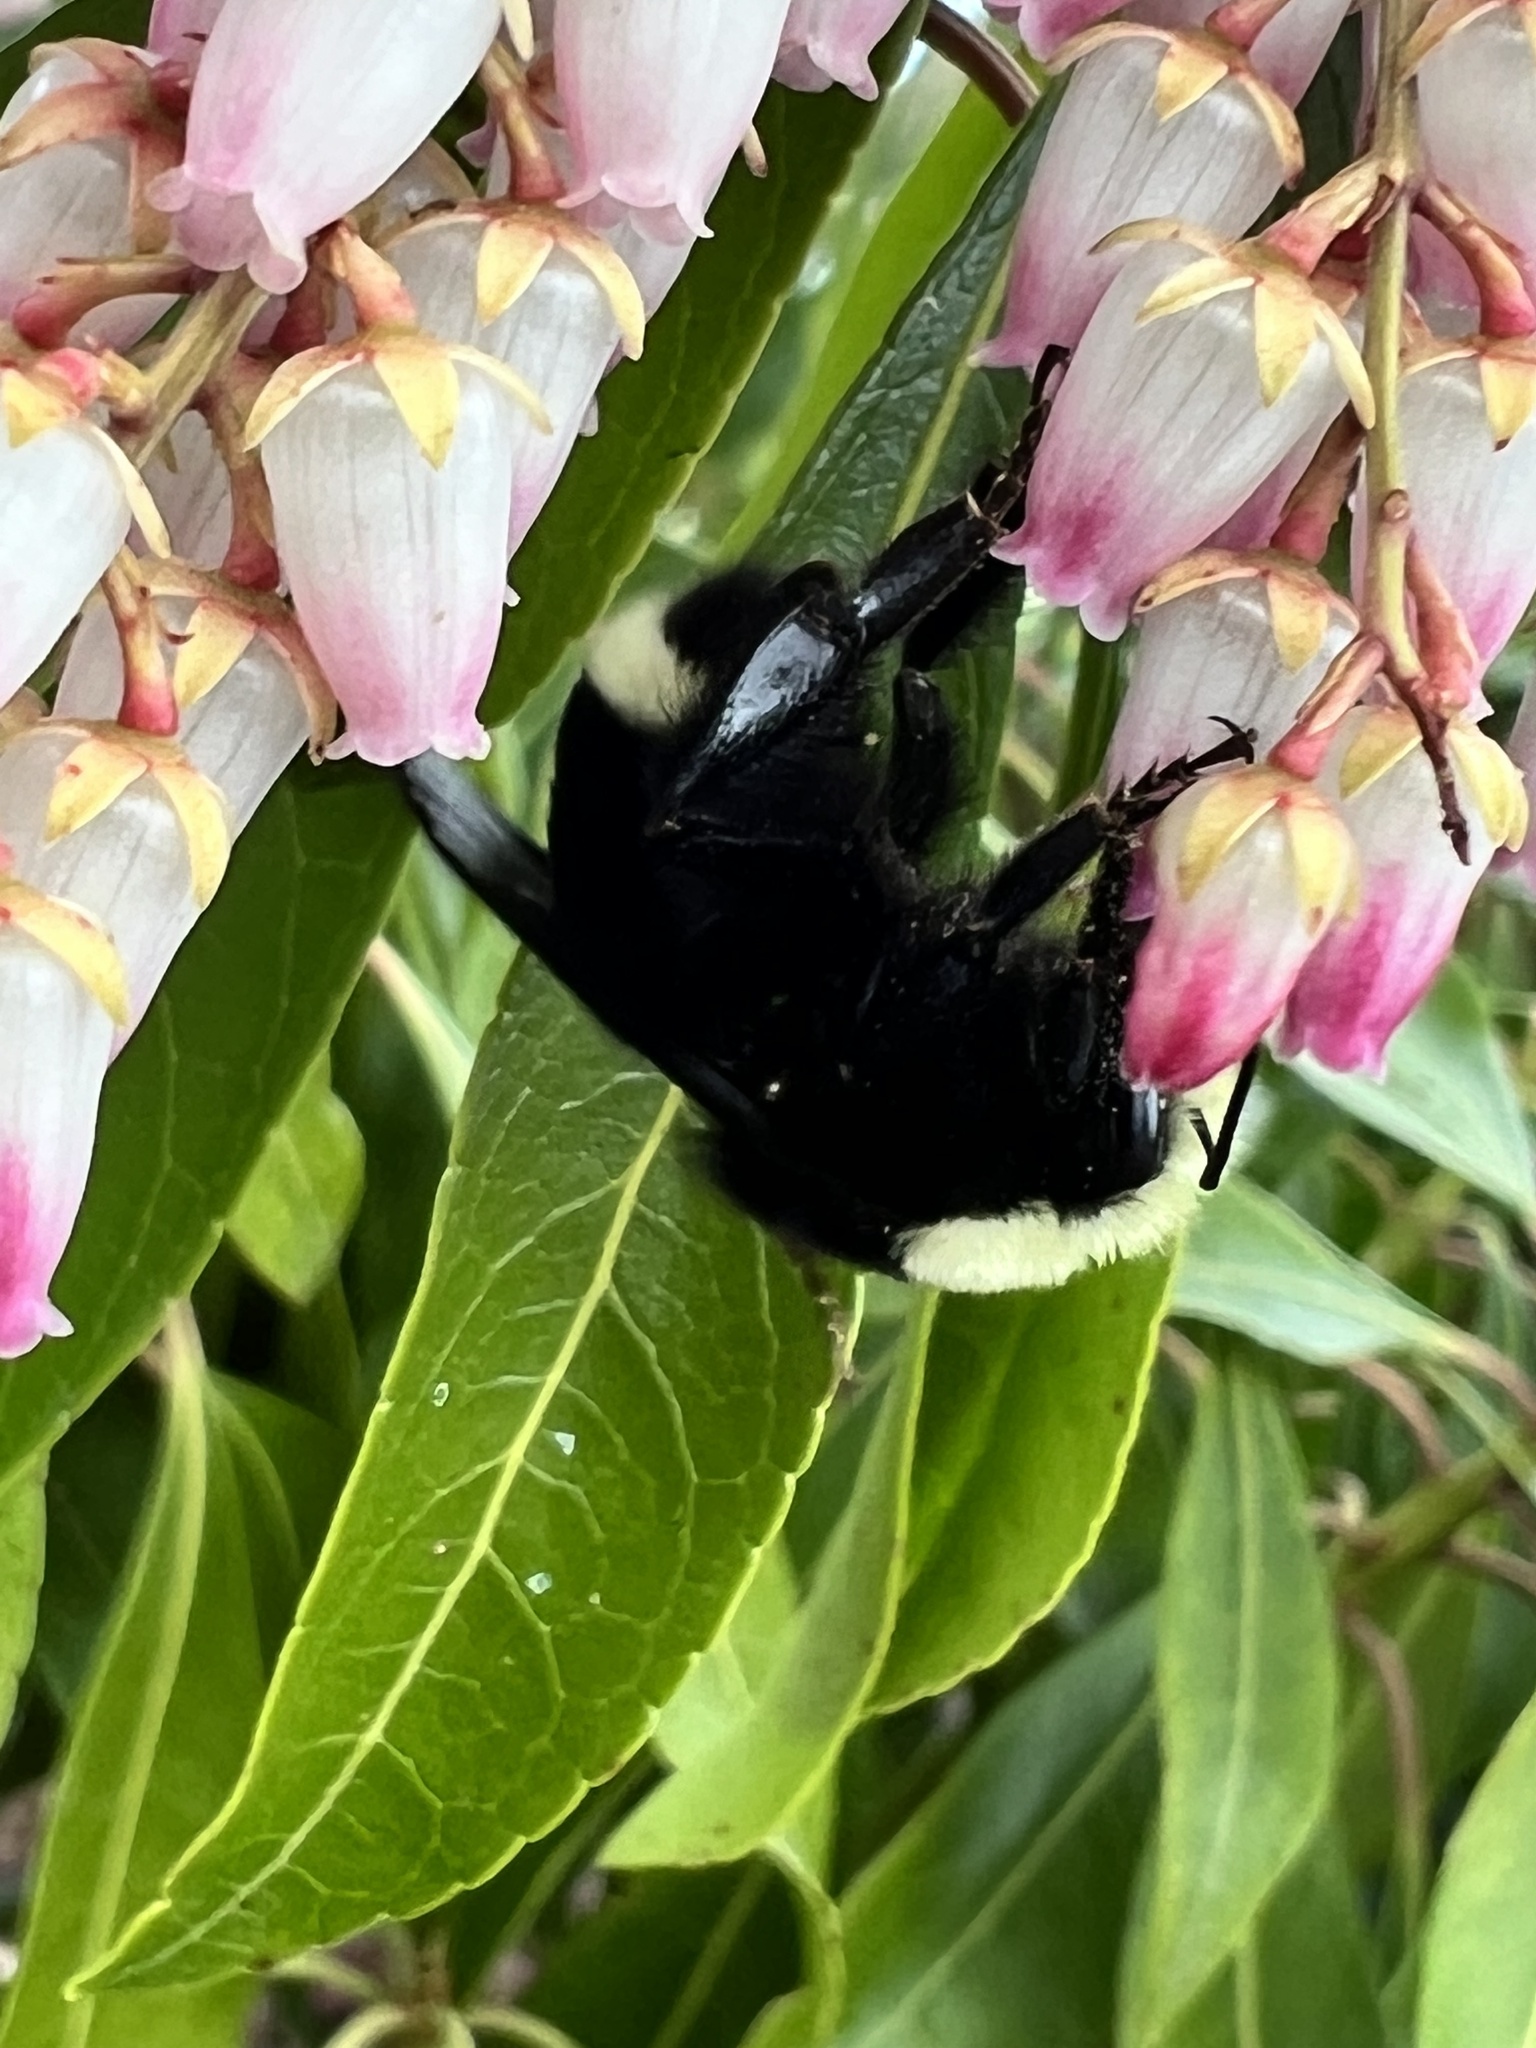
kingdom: Animalia
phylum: Arthropoda
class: Insecta
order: Hymenoptera
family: Apidae
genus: Bombus
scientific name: Bombus vosnesenskii
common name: Vosnesensky bumble bee
